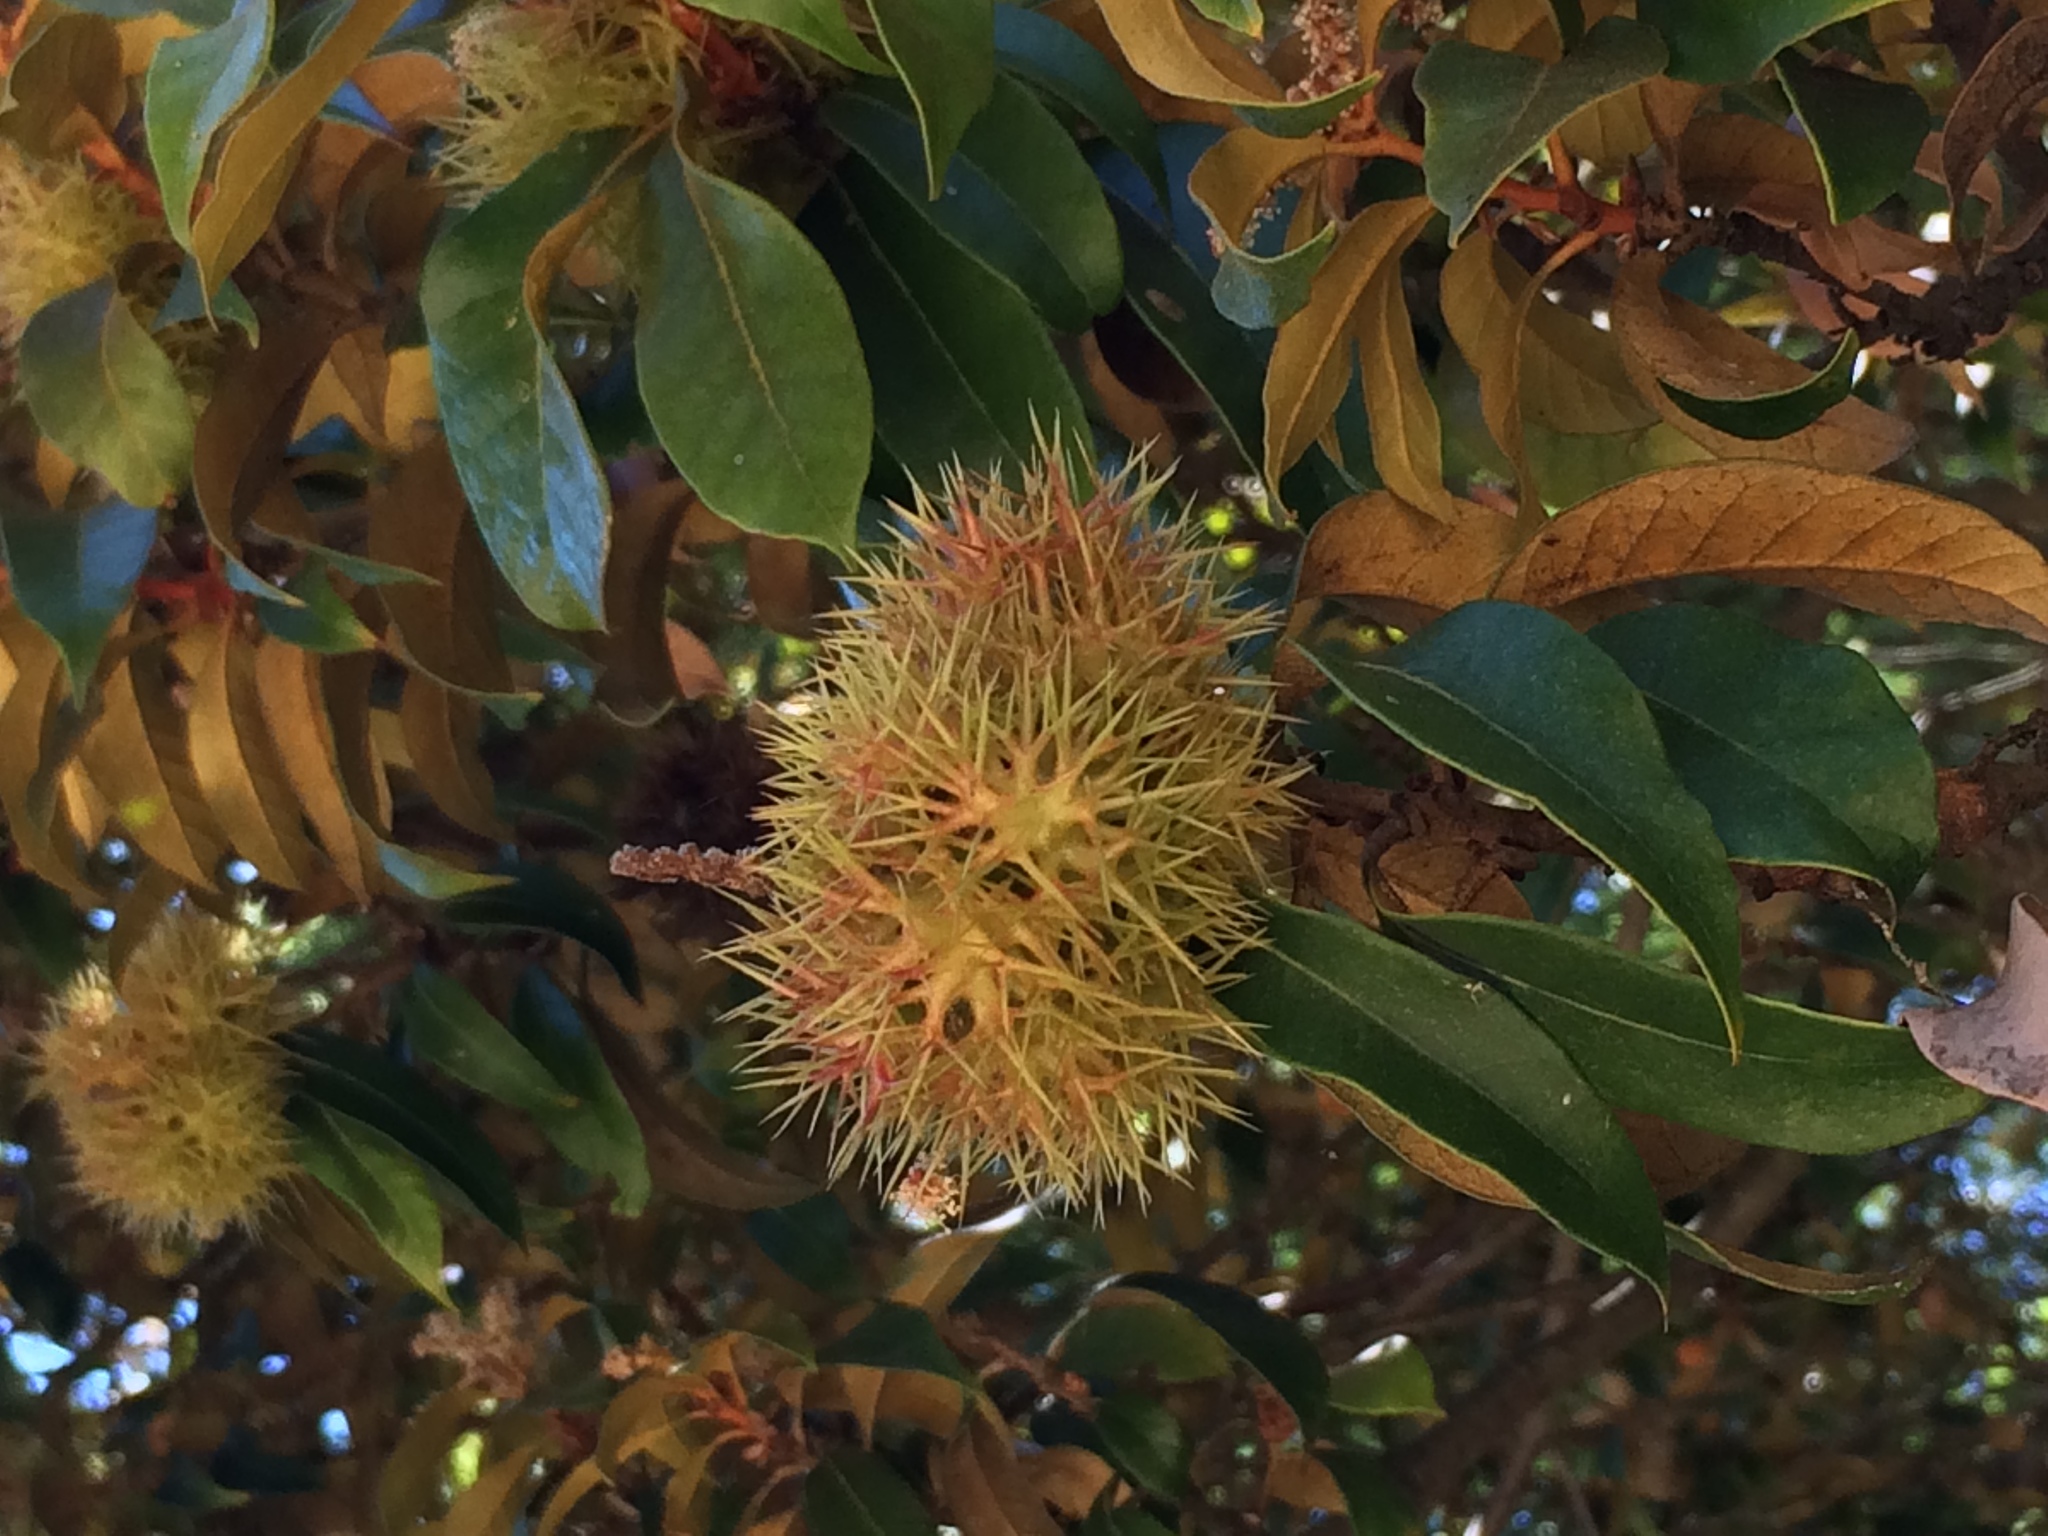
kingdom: Plantae
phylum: Tracheophyta
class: Magnoliopsida
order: Fagales
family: Fagaceae
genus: Chrysolepis
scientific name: Chrysolepis chrysophylla
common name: Giant chinquapin
